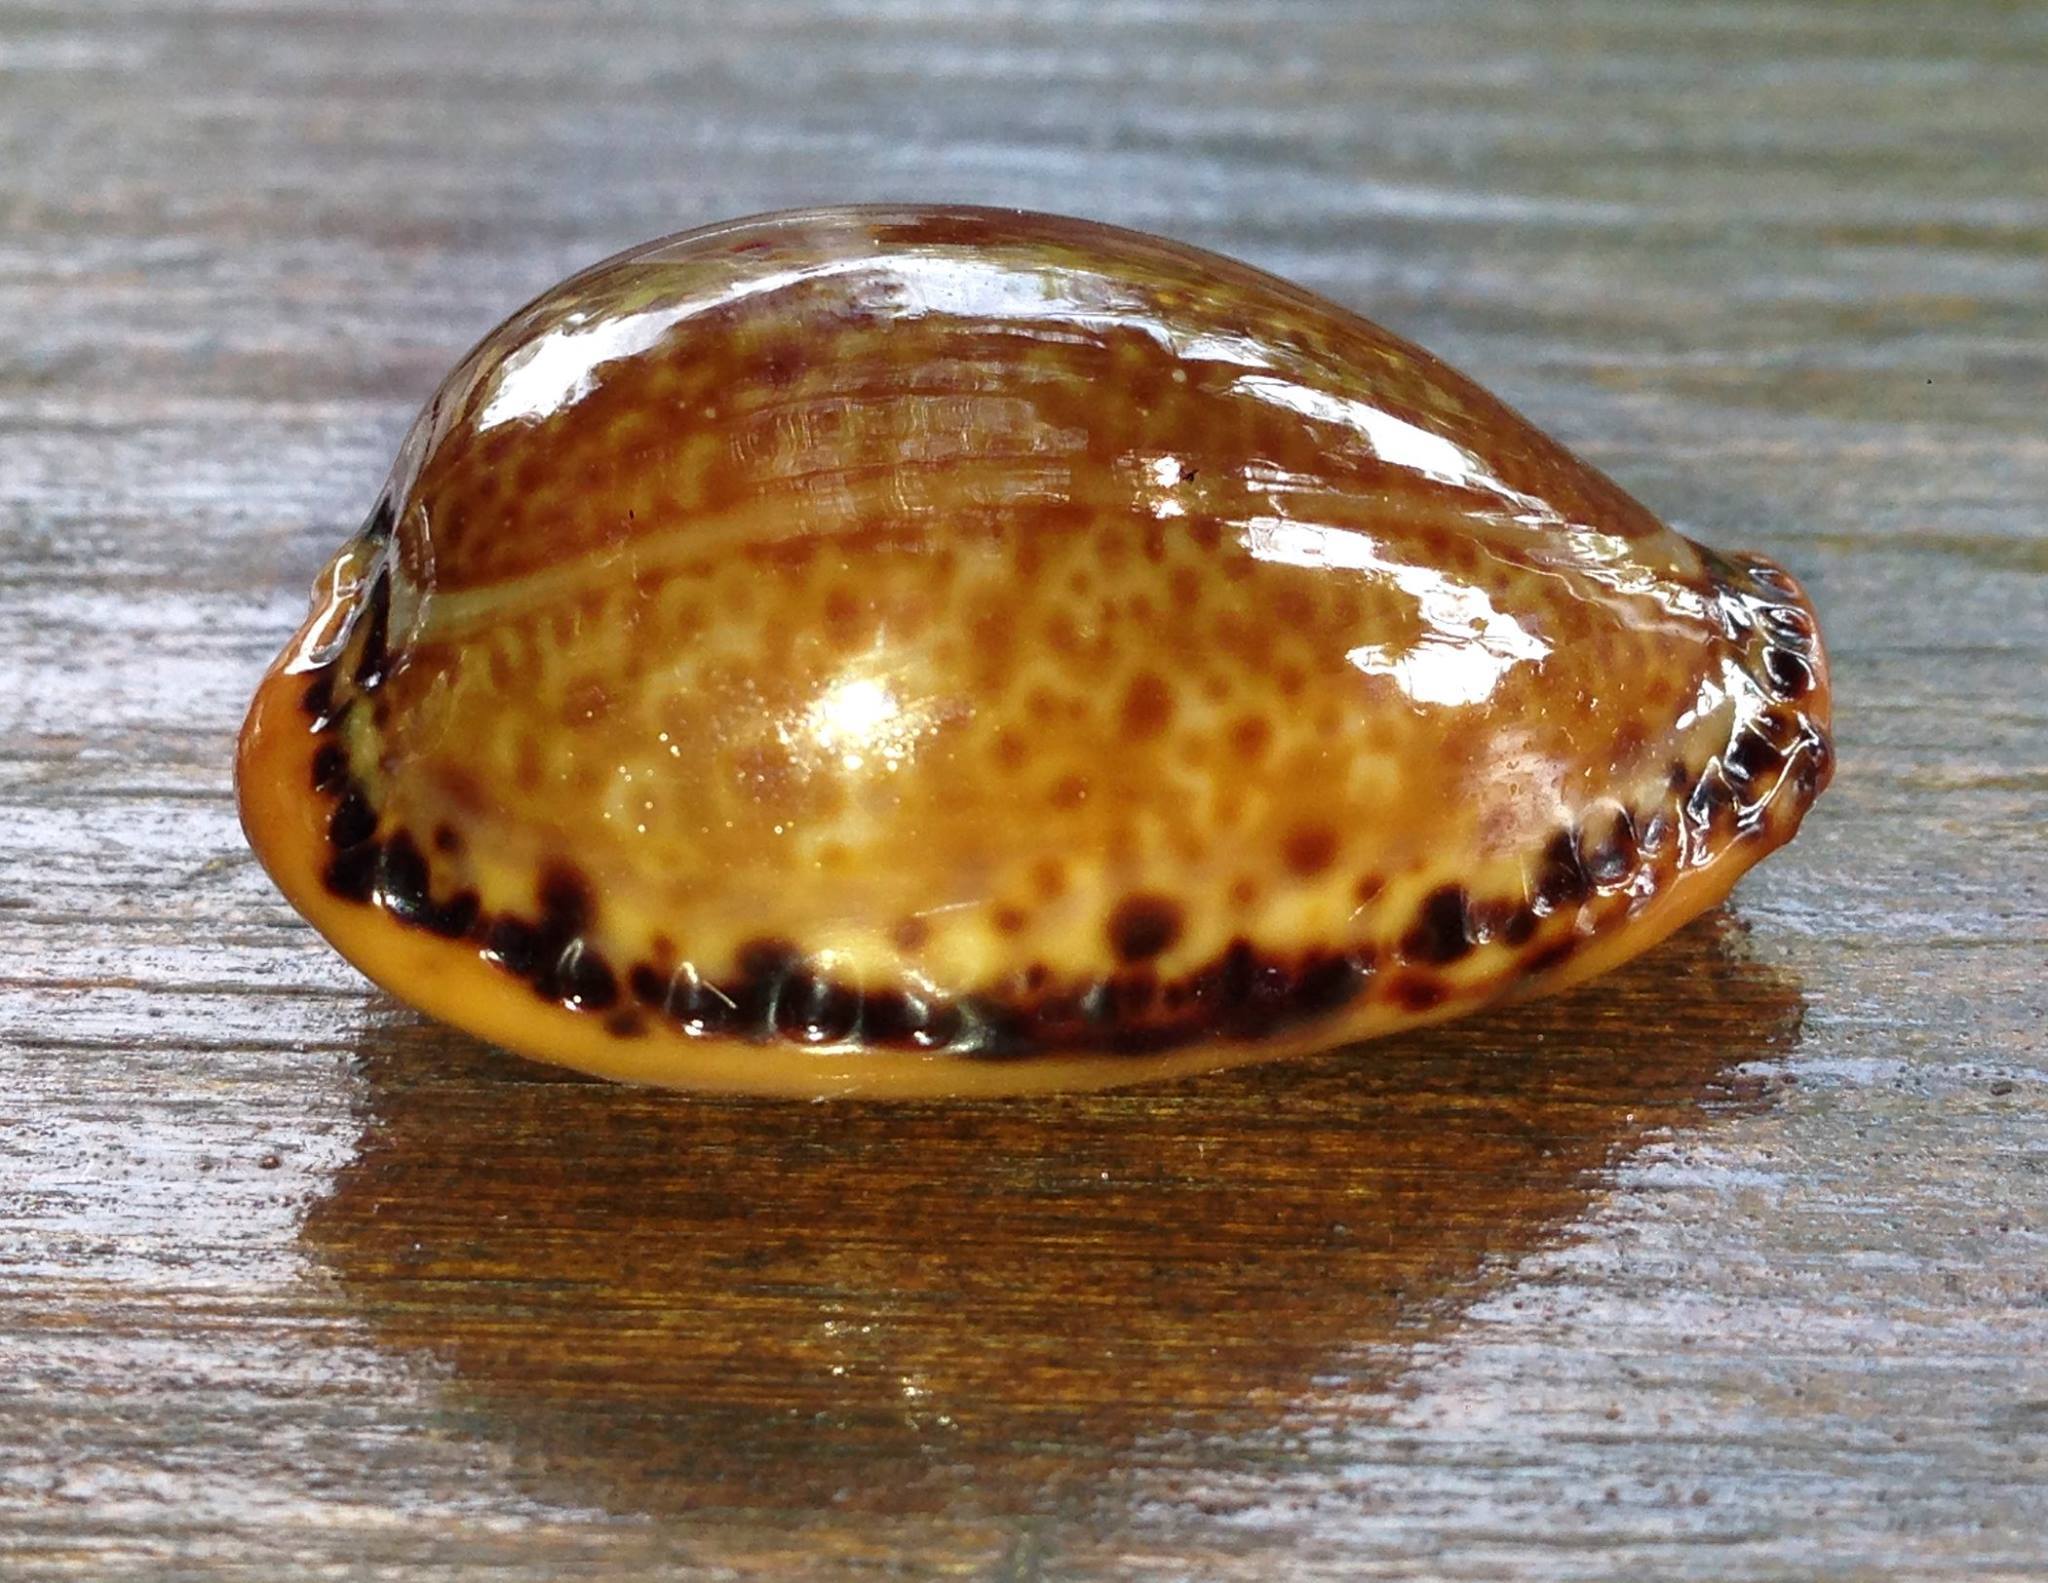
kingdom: Animalia
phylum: Mollusca
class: Gastropoda
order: Littorinimorpha
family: Cypraeidae
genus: Naria
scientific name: Naria spurca
